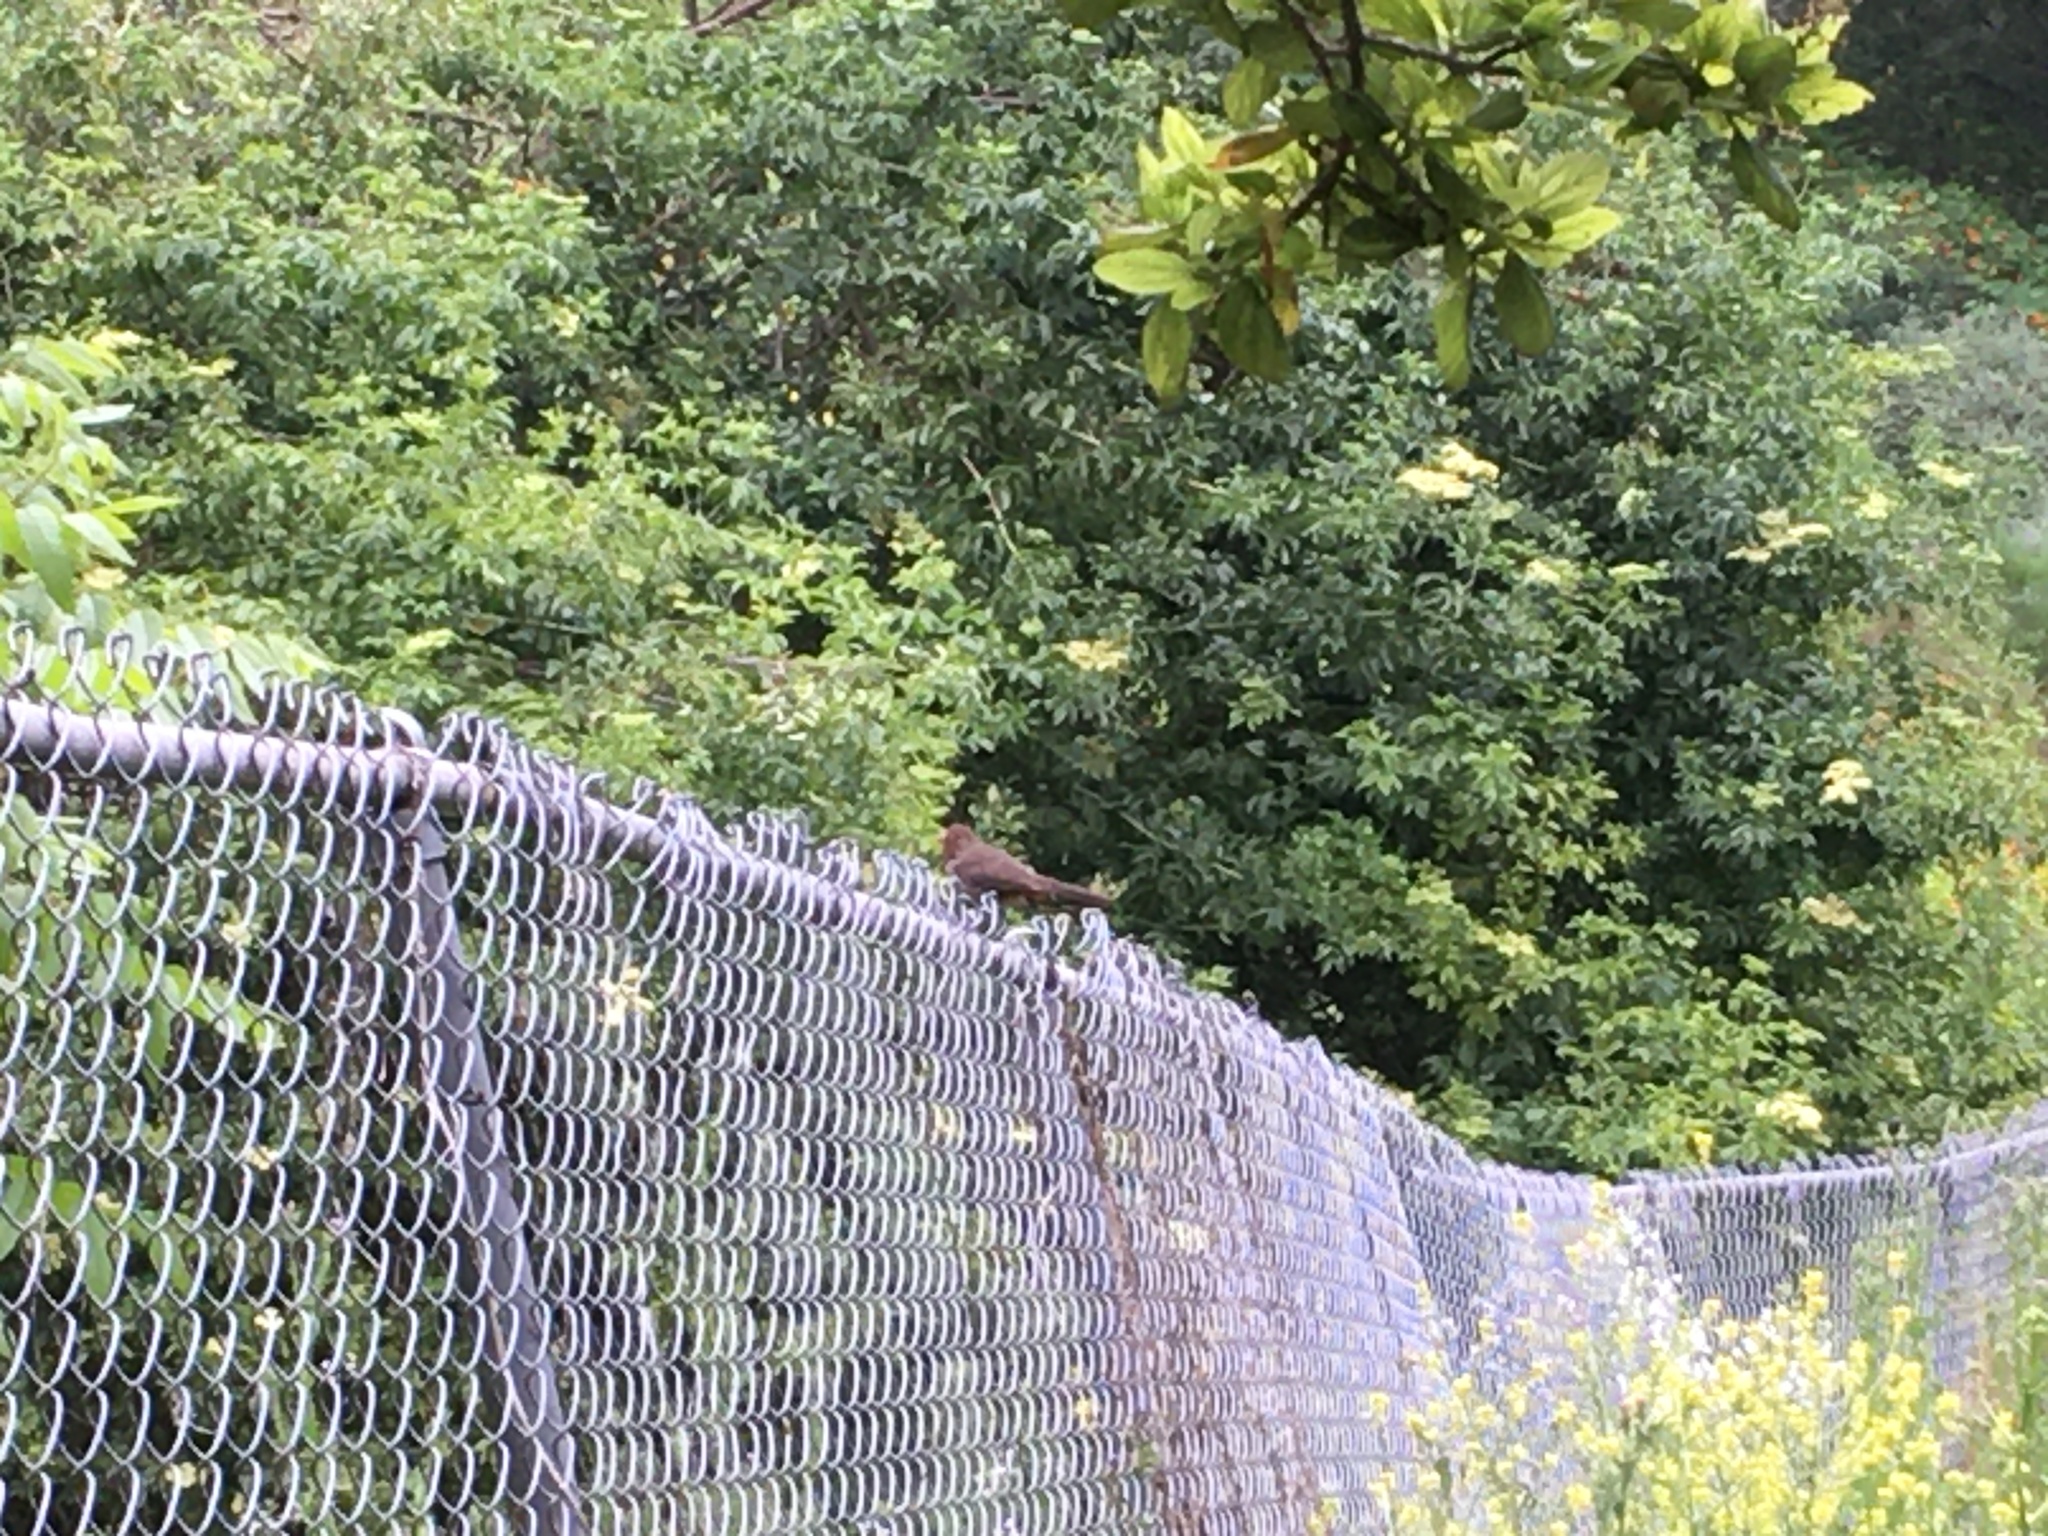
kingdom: Animalia
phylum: Chordata
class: Aves
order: Passeriformes
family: Passerellidae
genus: Melozone
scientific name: Melozone crissalis
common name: California towhee
